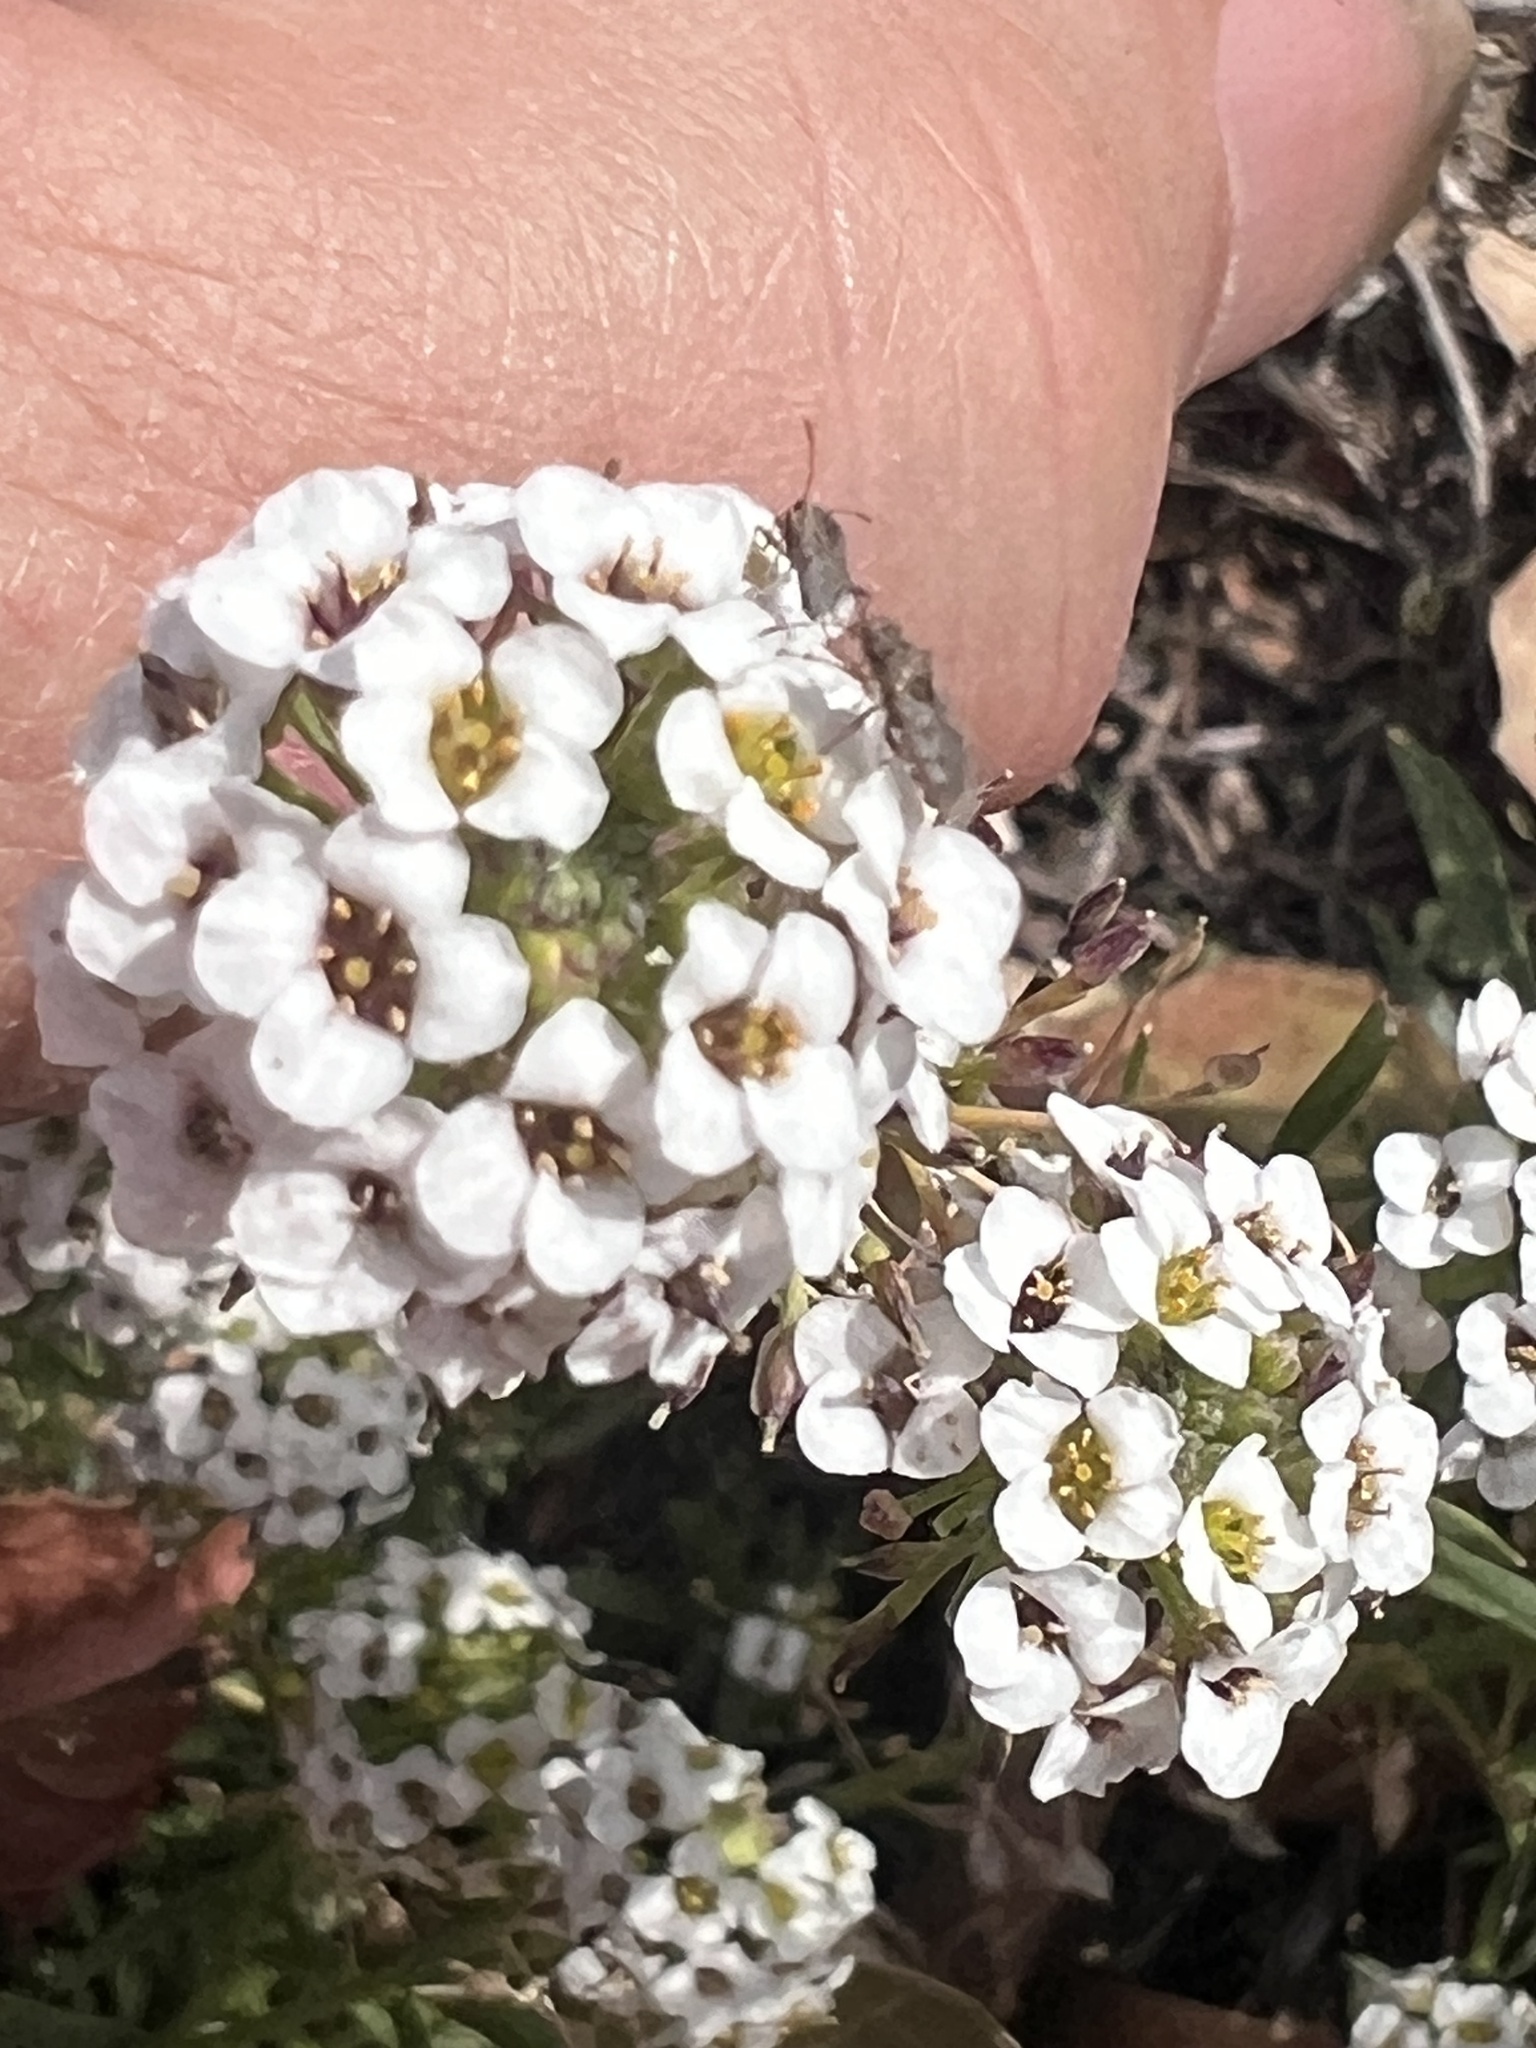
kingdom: Plantae
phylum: Tracheophyta
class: Magnoliopsida
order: Brassicales
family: Brassicaceae
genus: Lobularia
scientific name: Lobularia maritima
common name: Sweet alison
